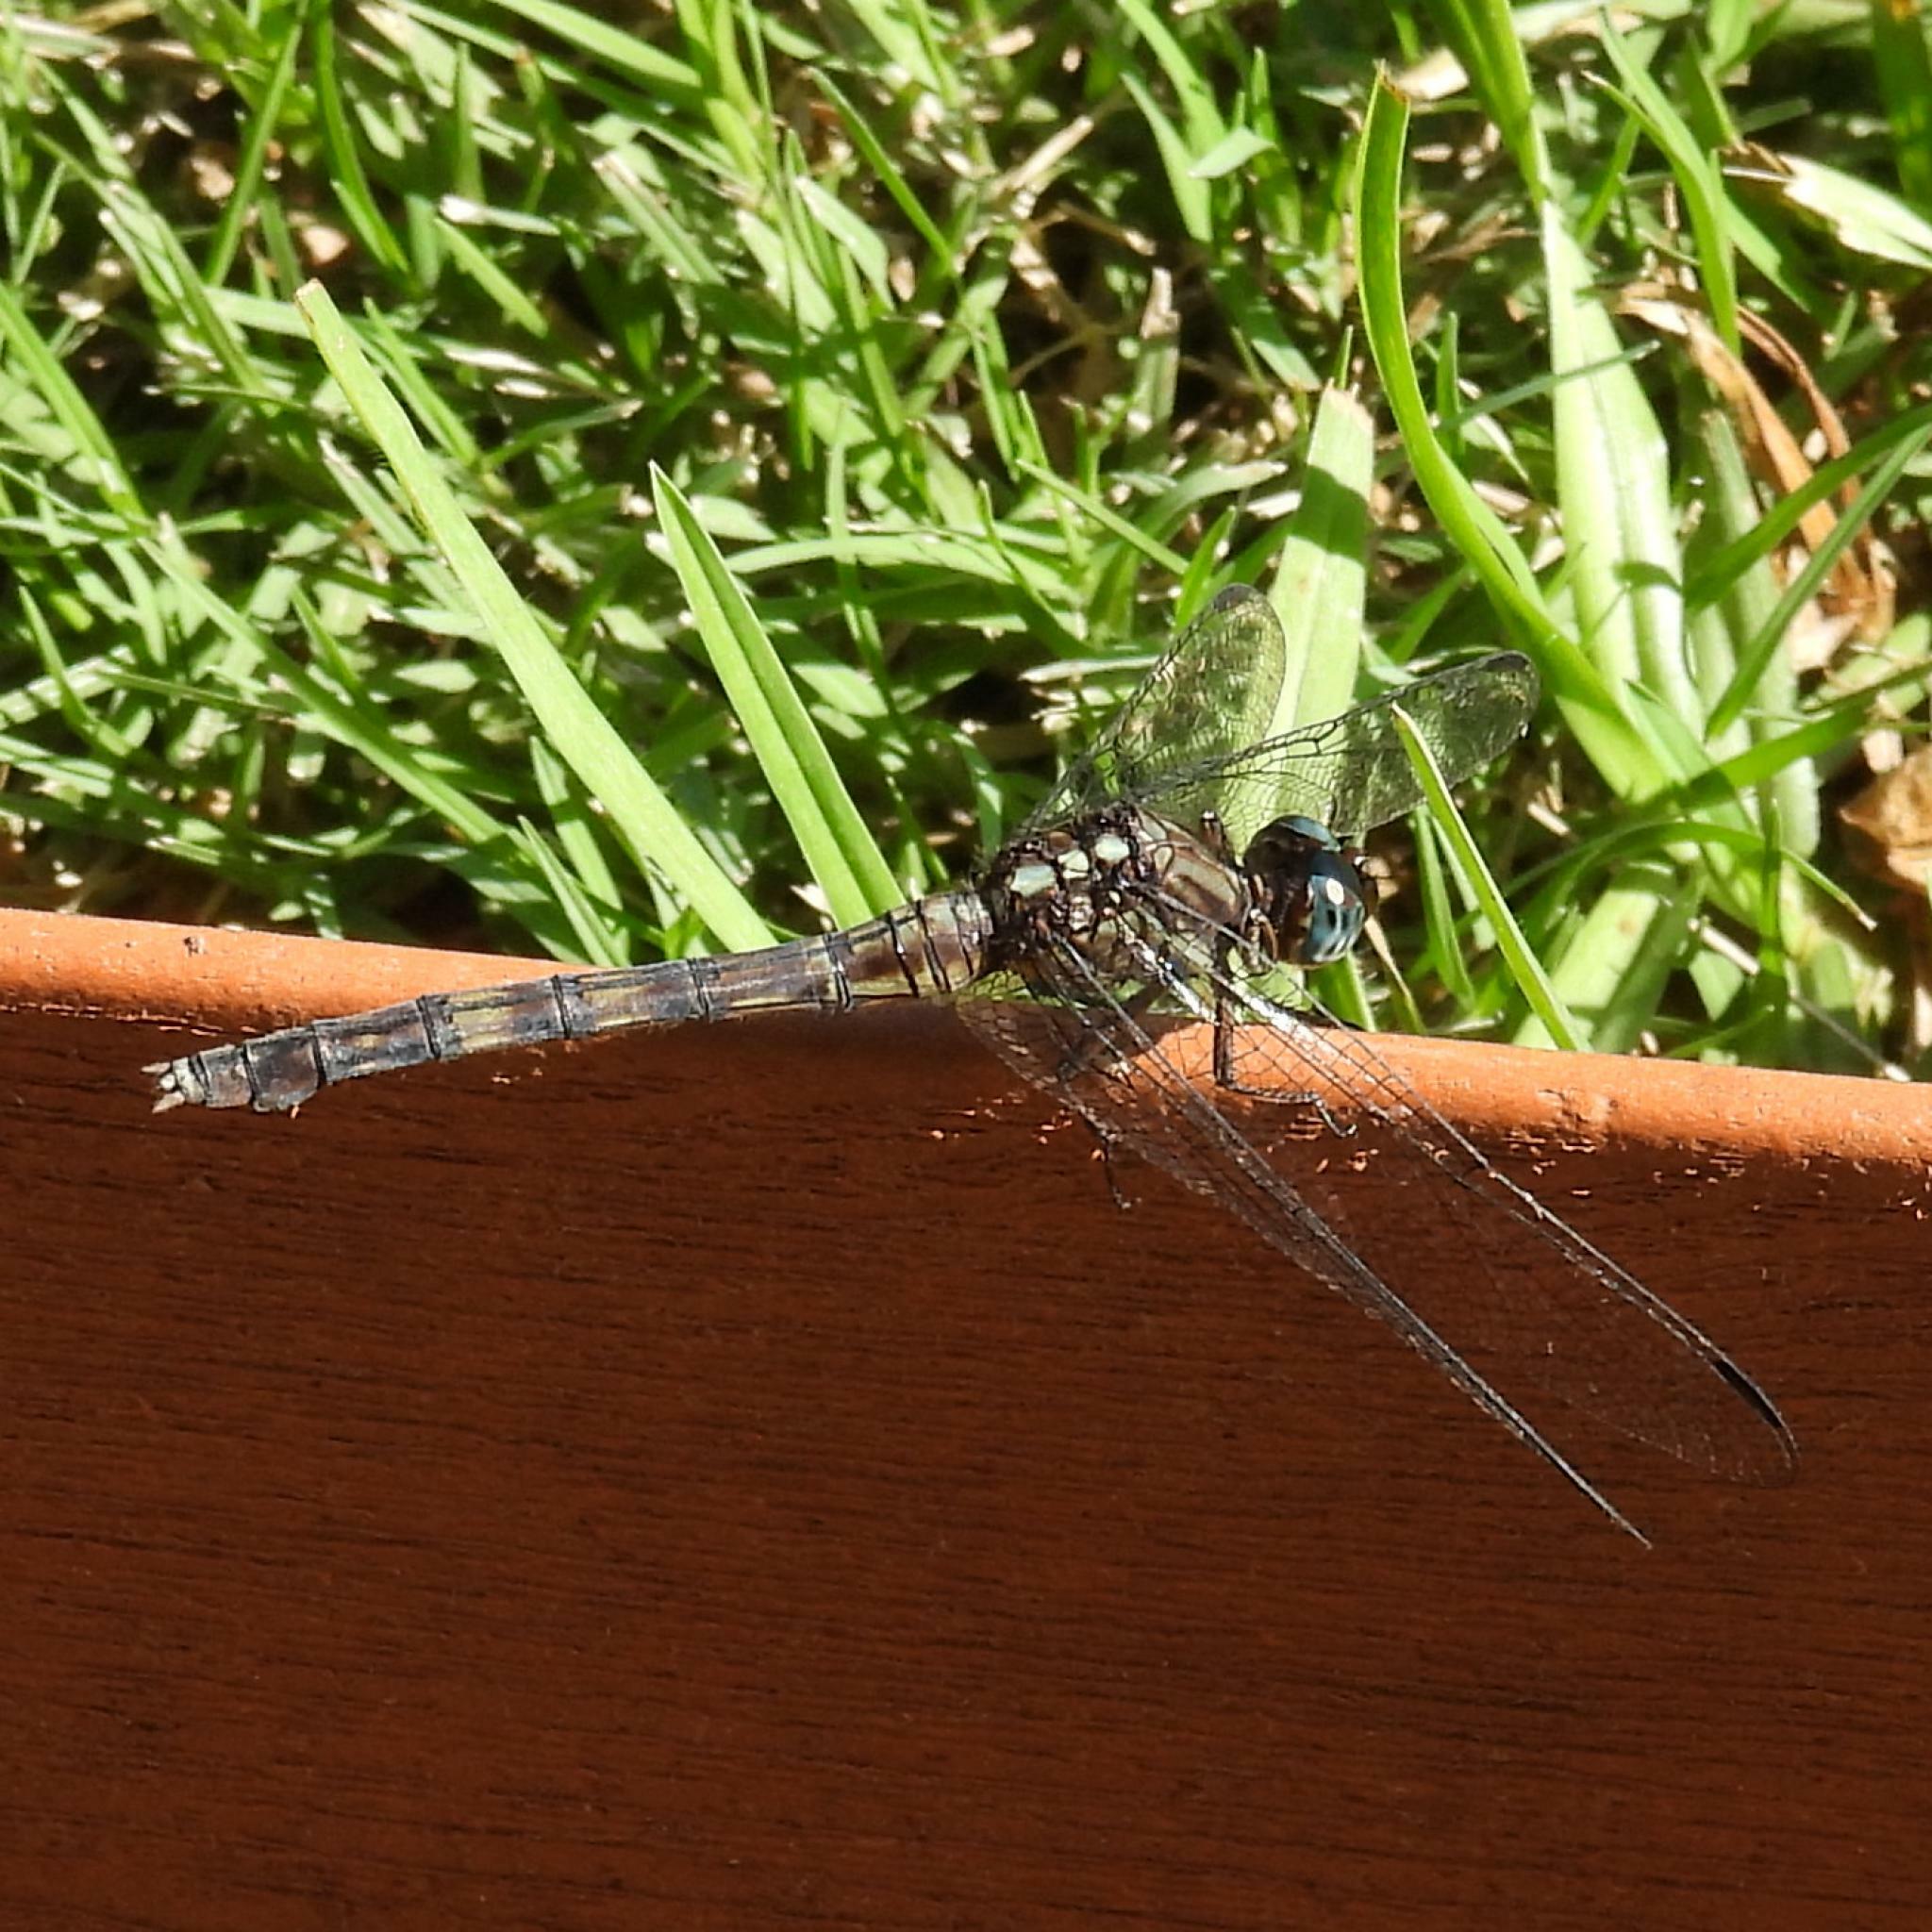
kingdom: Animalia
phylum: Arthropoda
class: Insecta
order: Odonata
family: Libellulidae
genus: Orthetrum
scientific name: Orthetrum julia
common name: Julia skimmer
